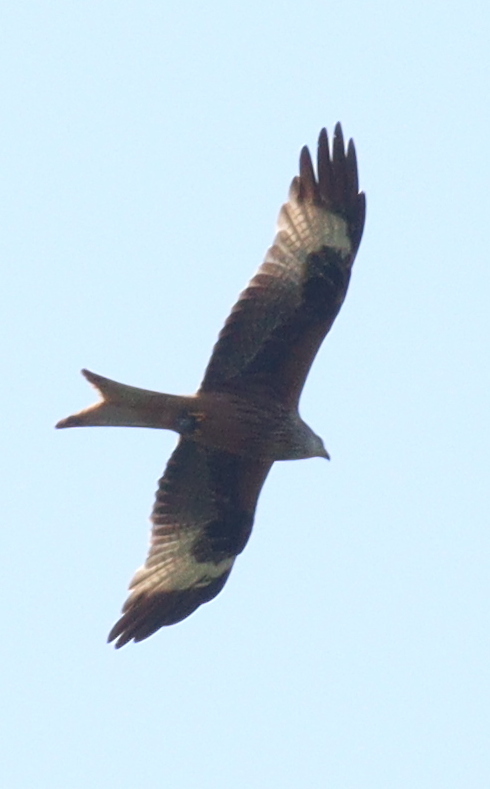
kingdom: Animalia
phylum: Chordata
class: Aves
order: Accipitriformes
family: Accipitridae
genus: Milvus
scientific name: Milvus milvus
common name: Red kite
